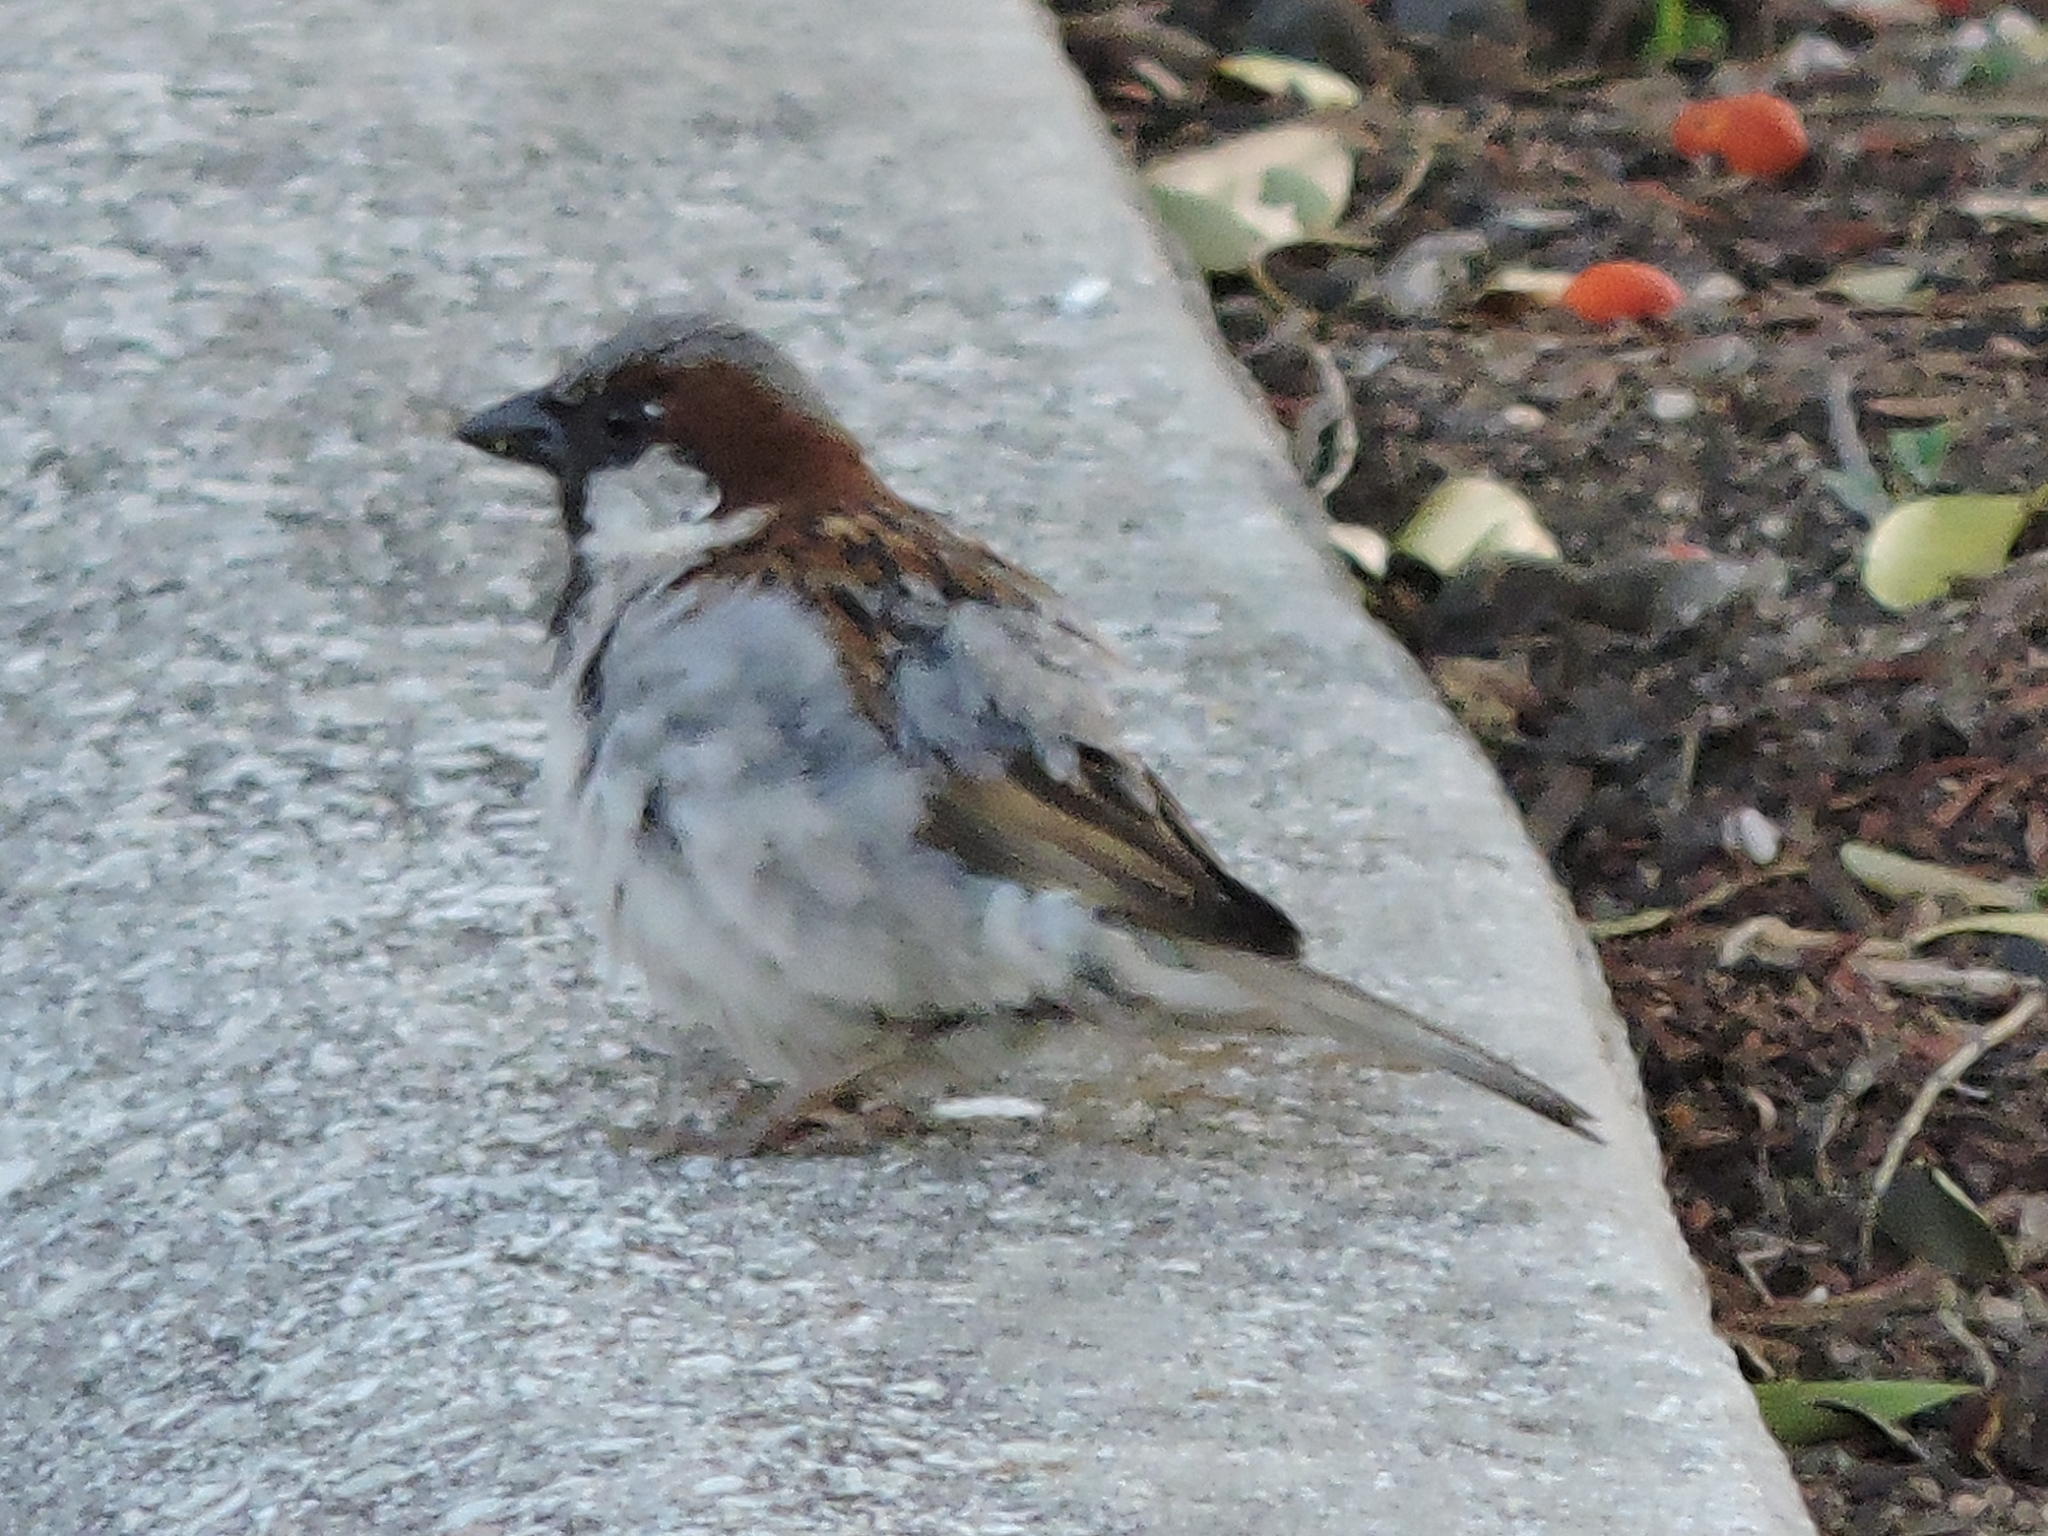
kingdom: Animalia
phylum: Chordata
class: Aves
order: Passeriformes
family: Passeridae
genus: Passer
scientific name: Passer domesticus
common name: House sparrow
